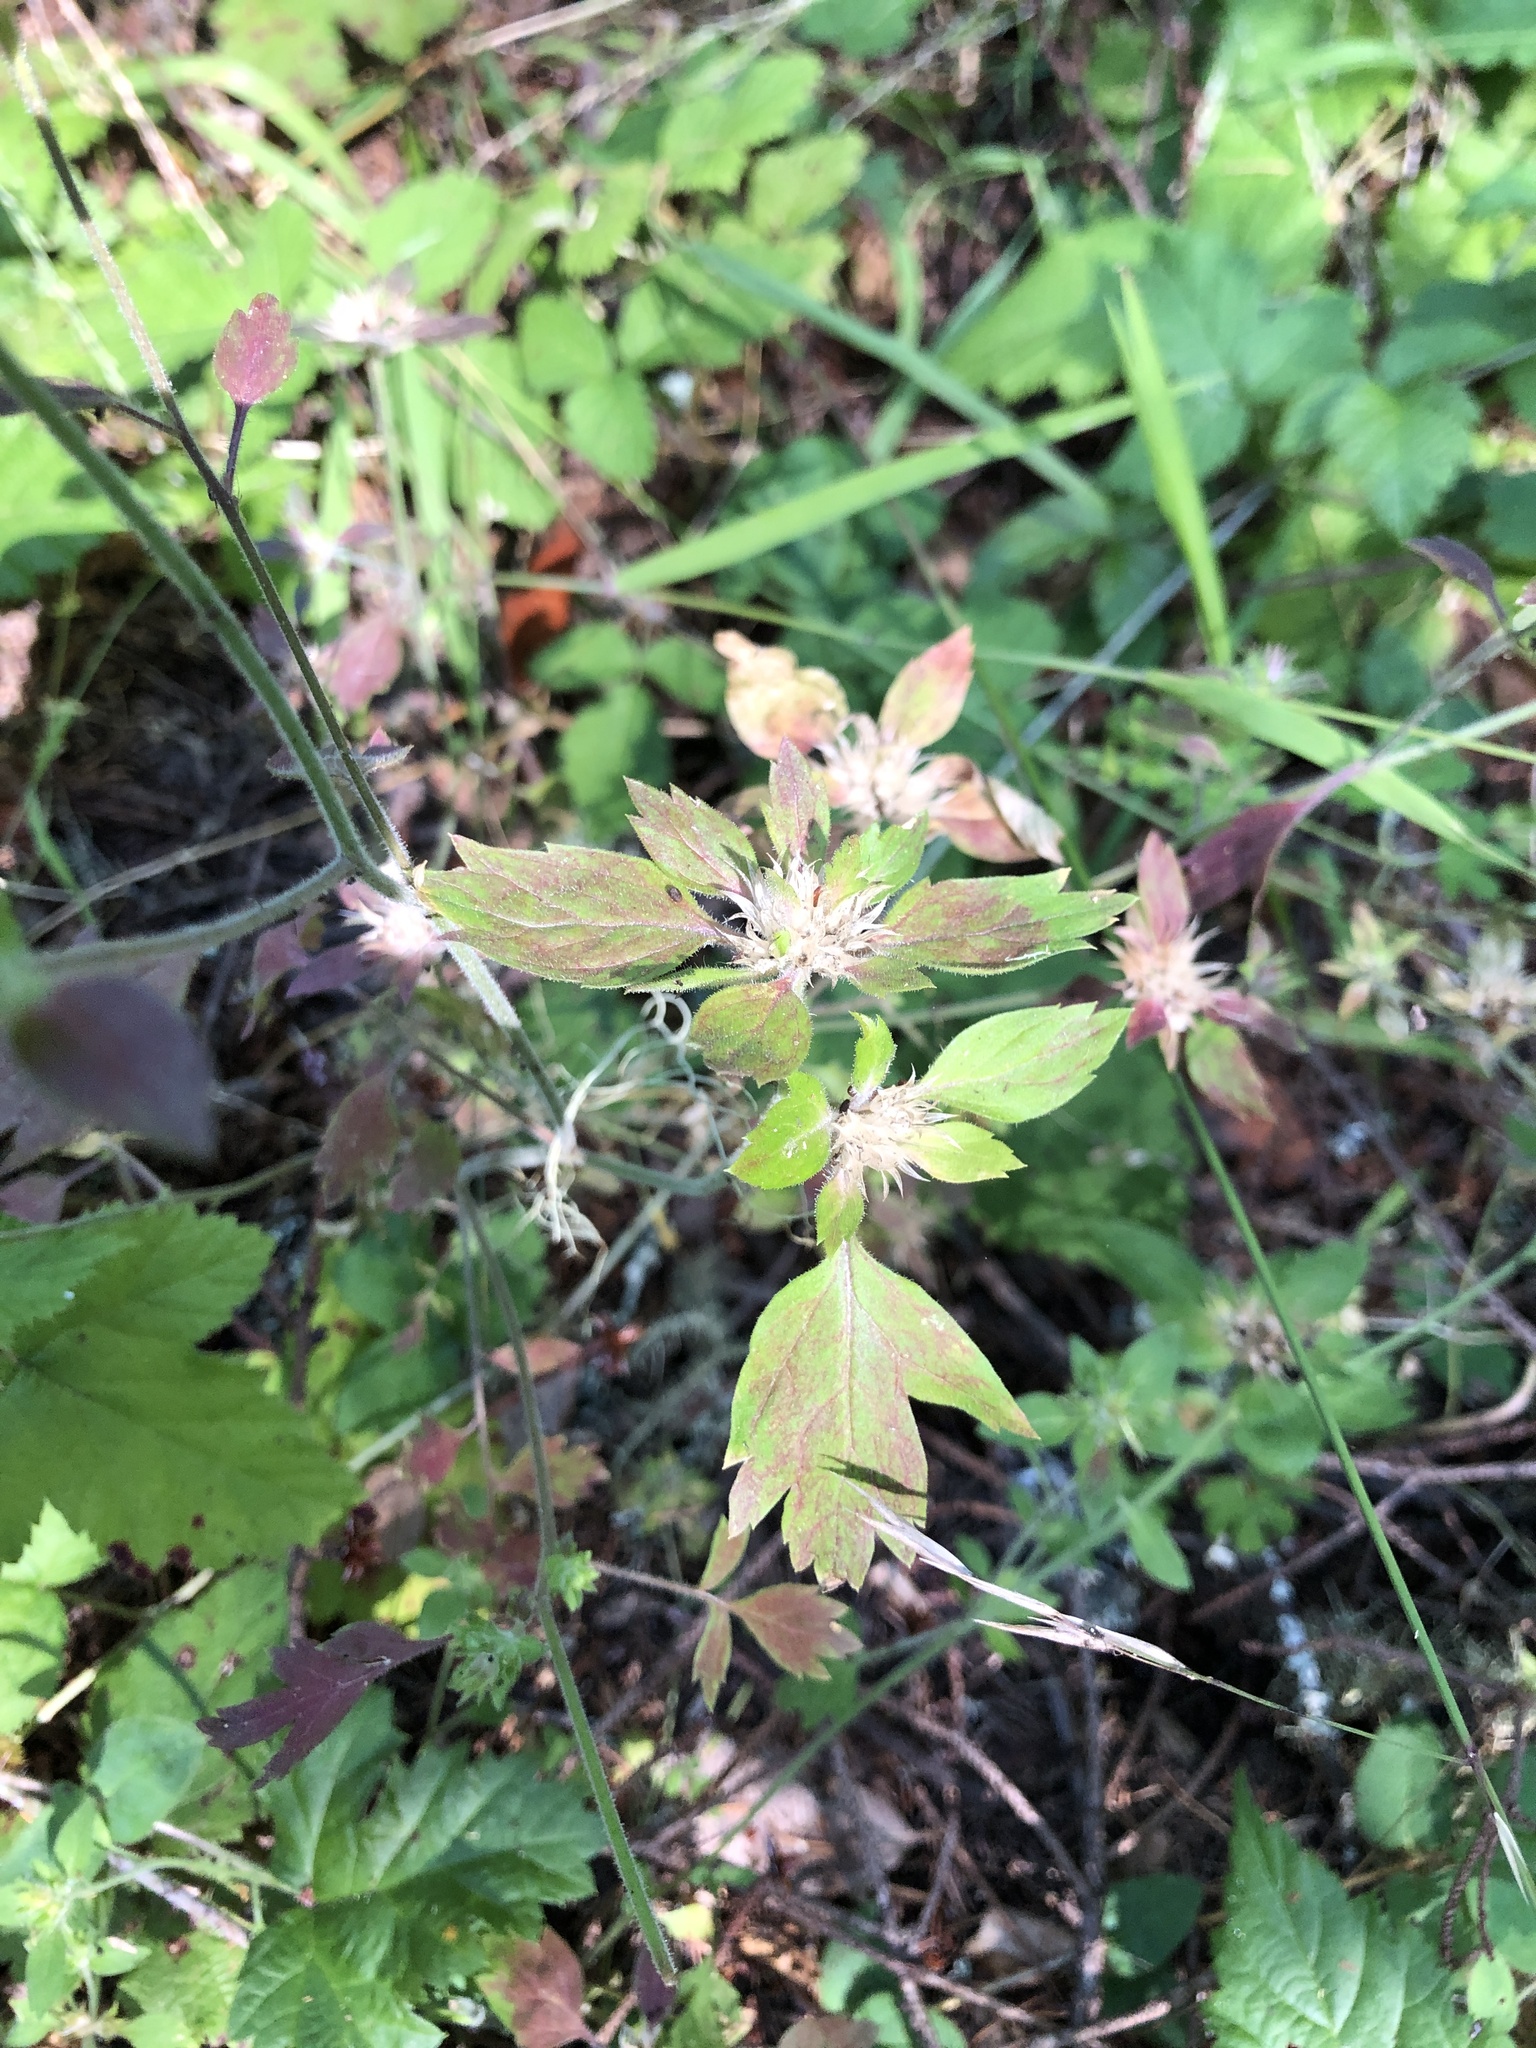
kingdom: Plantae
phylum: Tracheophyta
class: Magnoliopsida
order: Ericales
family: Polemoniaceae
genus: Collomia
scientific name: Collomia heterophylla
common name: Variable-leaved collomia
